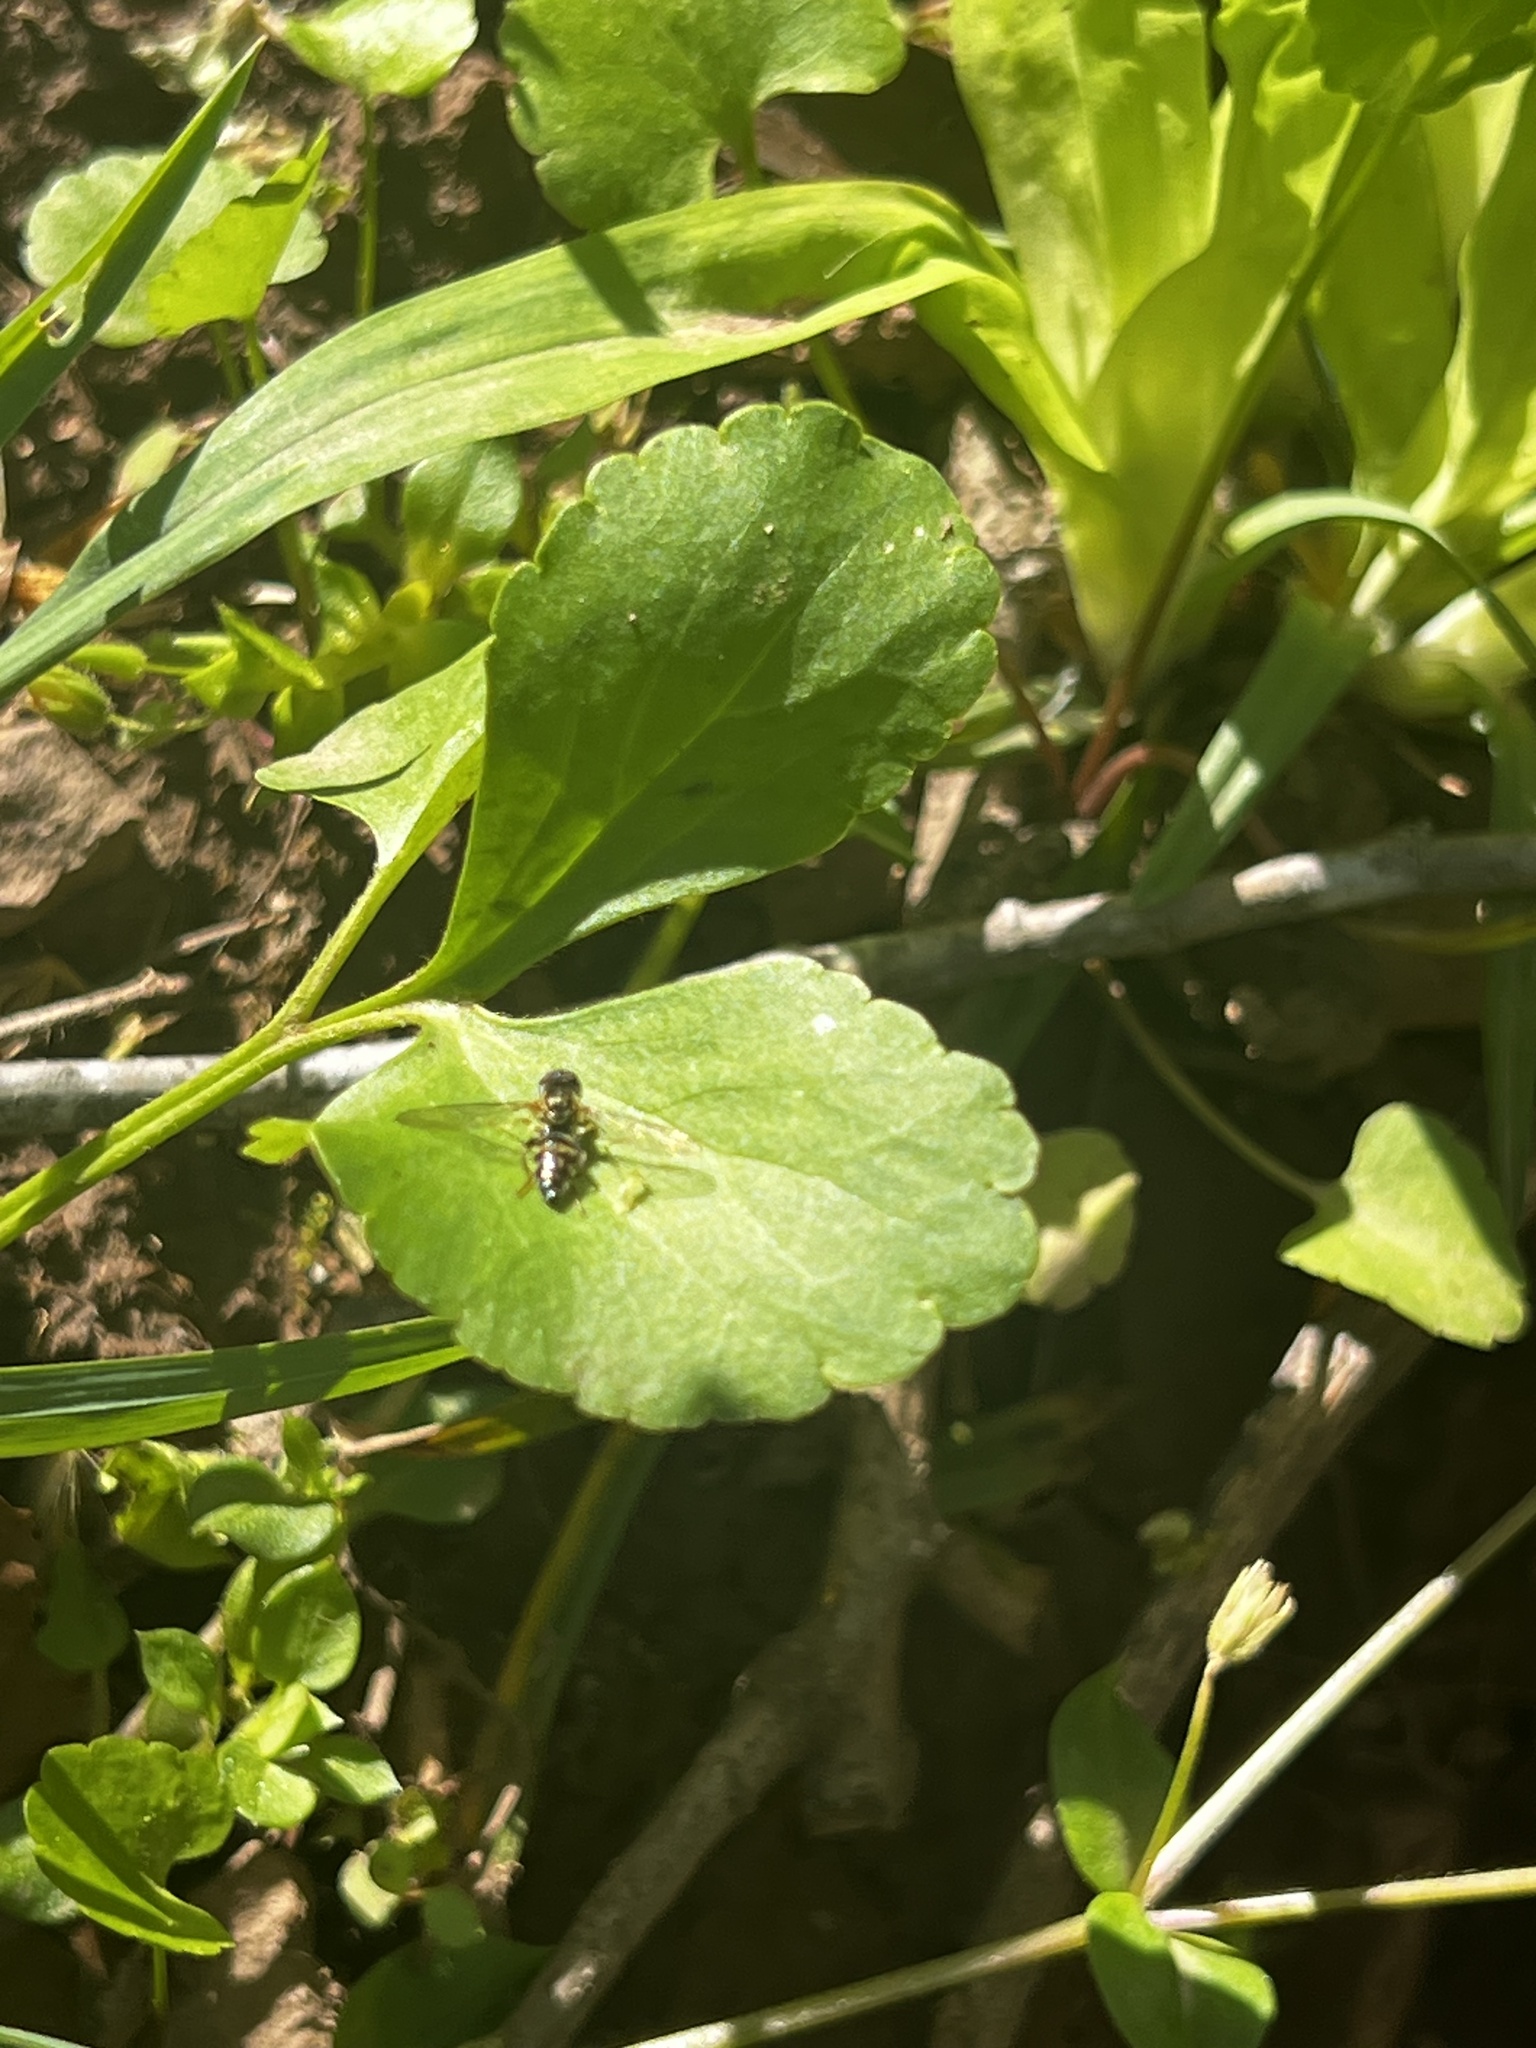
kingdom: Animalia
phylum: Arthropoda
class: Insecta
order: Diptera
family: Syrphidae
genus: Toxomerus
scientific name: Toxomerus geminatus
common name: Eastern calligrapher
